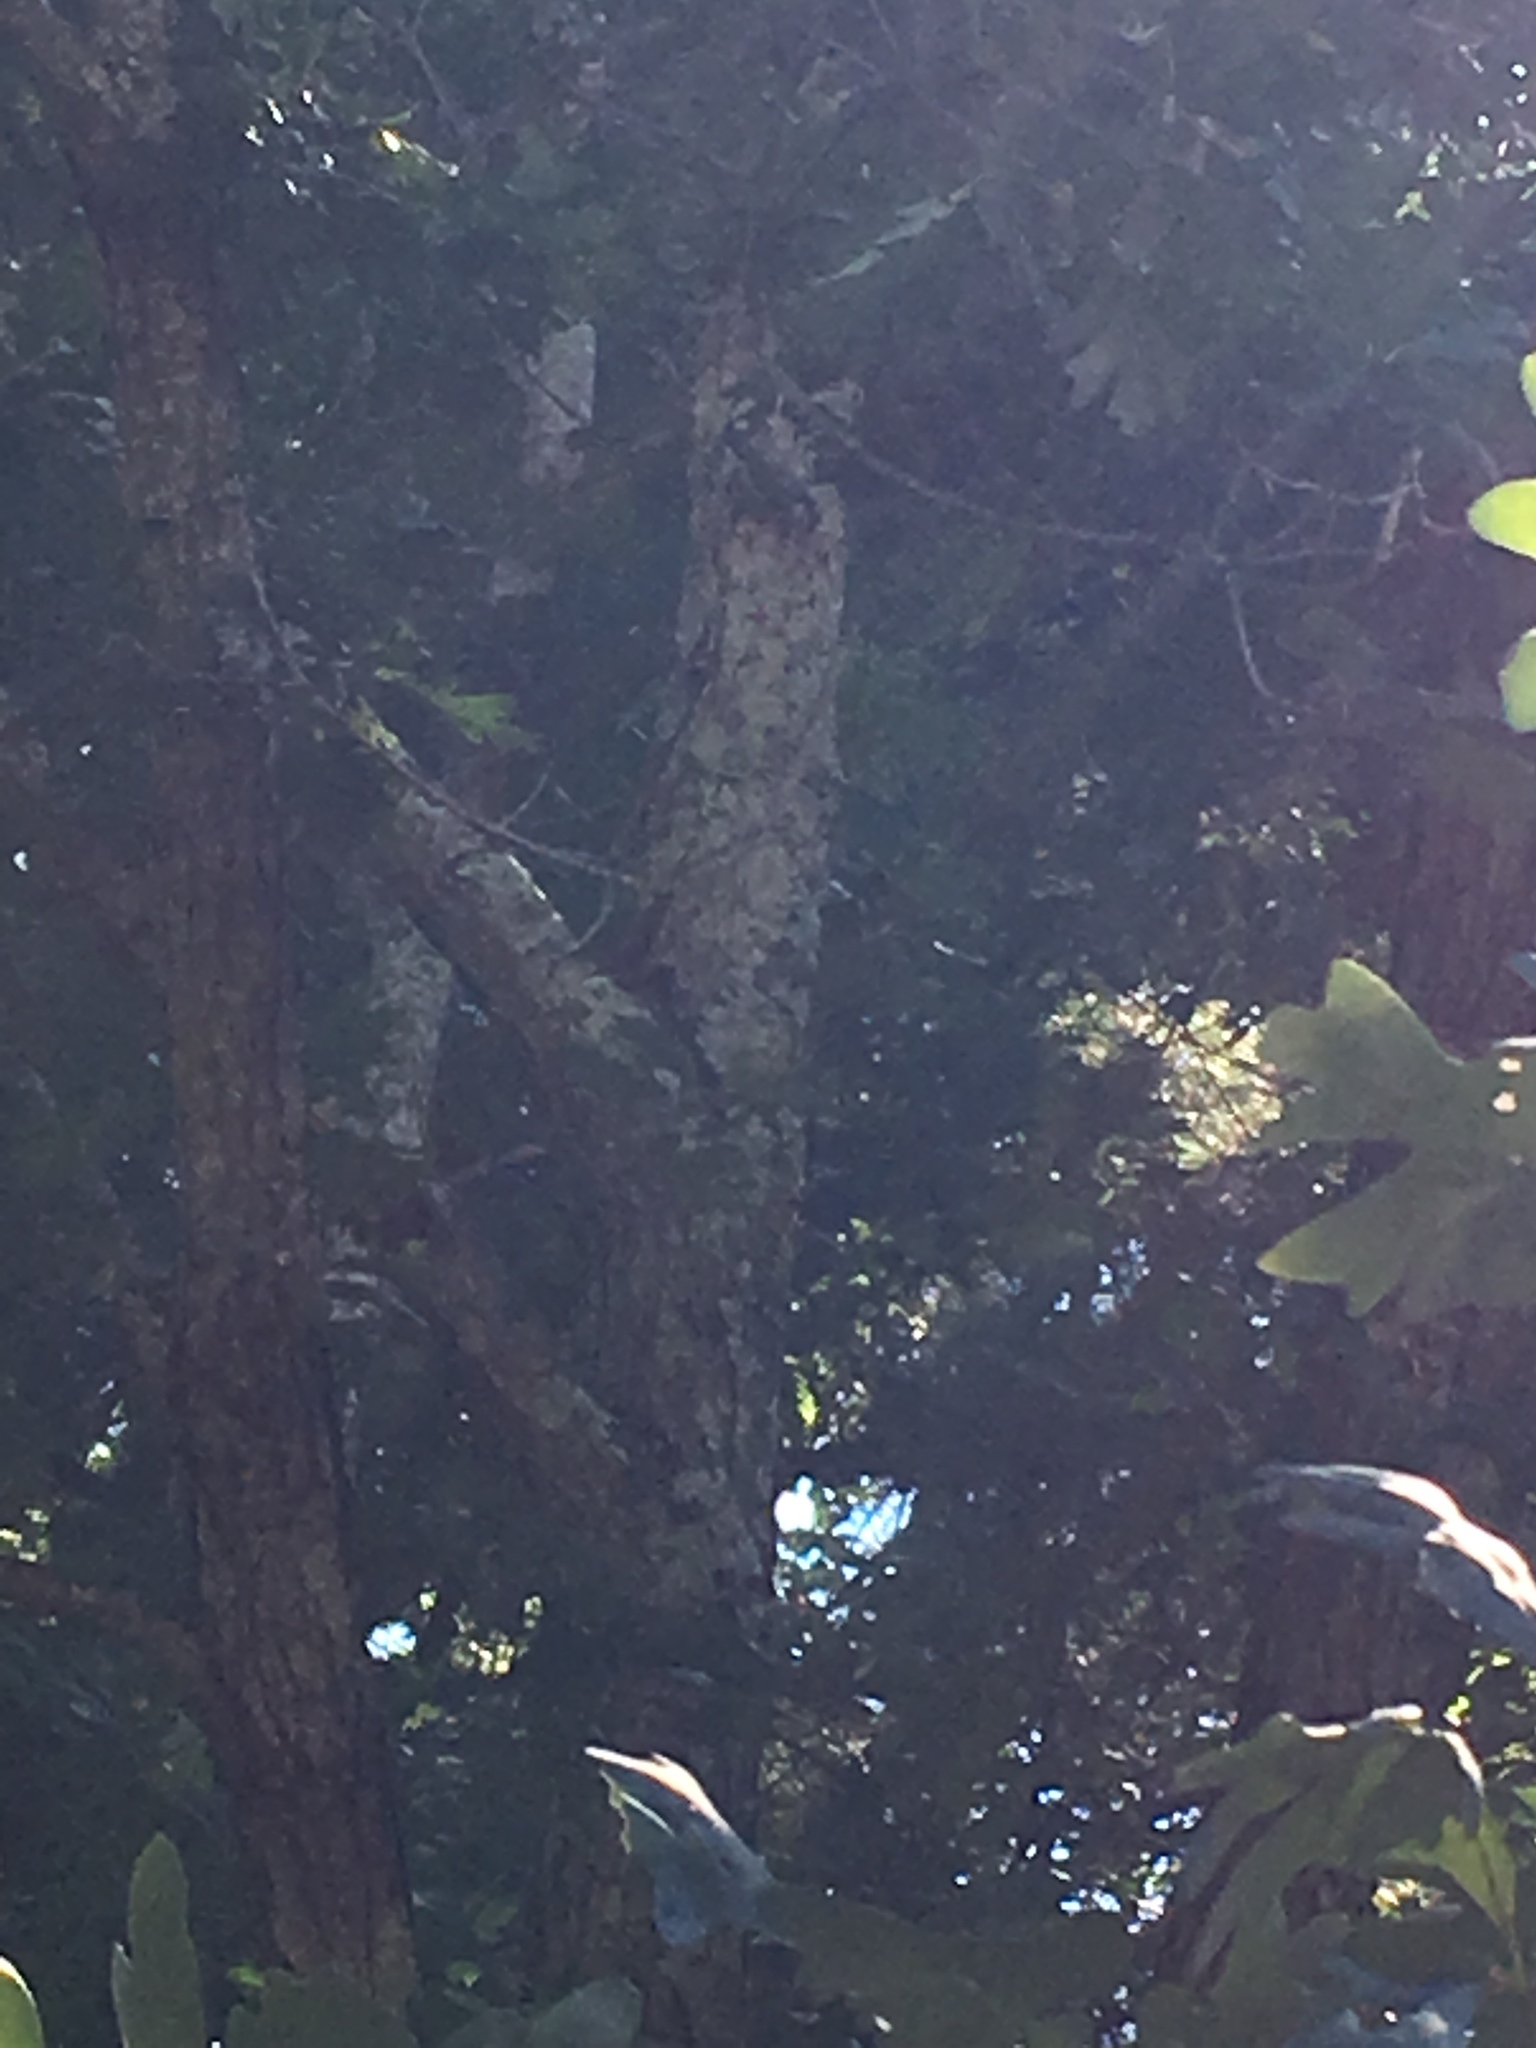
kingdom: Animalia
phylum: Chordata
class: Aves
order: Passeriformes
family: Sittidae
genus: Sitta
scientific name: Sitta carolinensis
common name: White-breasted nuthatch
